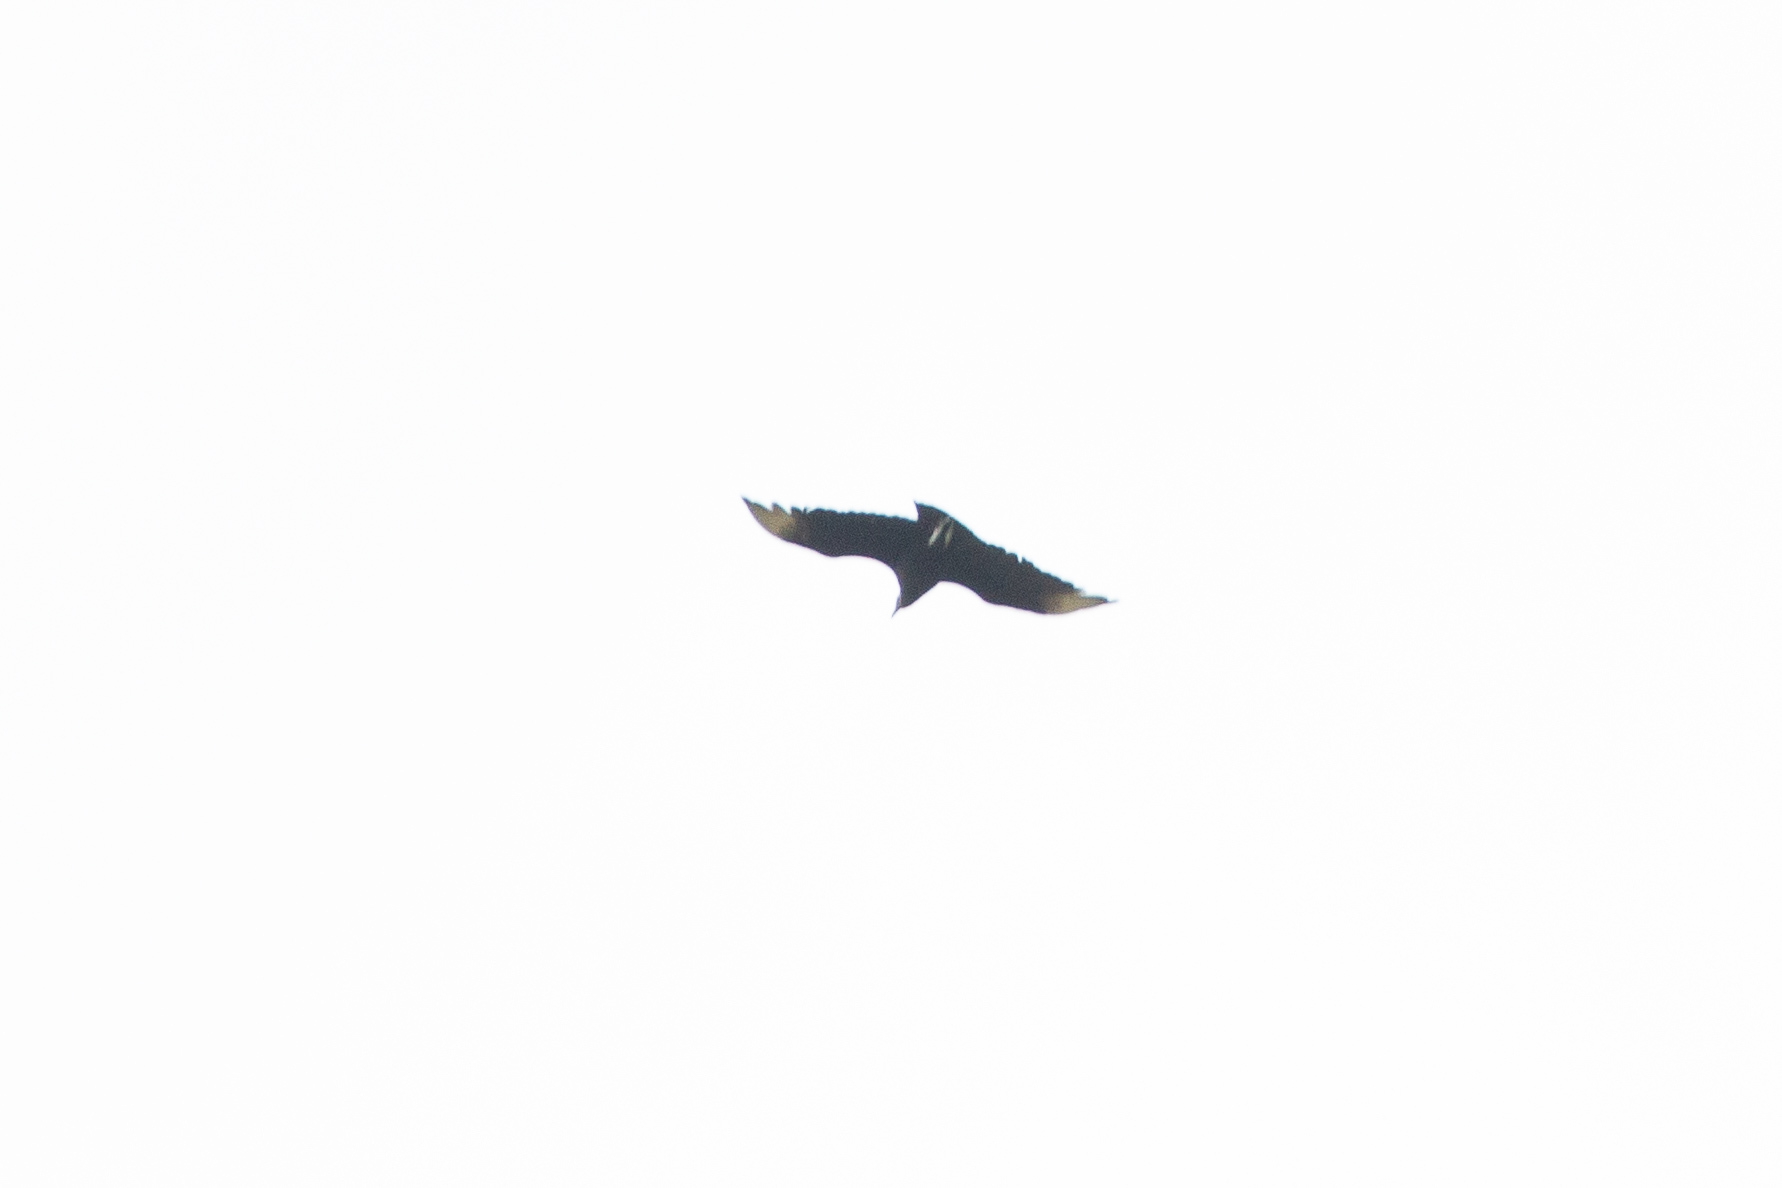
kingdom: Animalia
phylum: Chordata
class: Aves
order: Accipitriformes
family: Cathartidae
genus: Coragyps
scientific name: Coragyps atratus
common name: Black vulture
